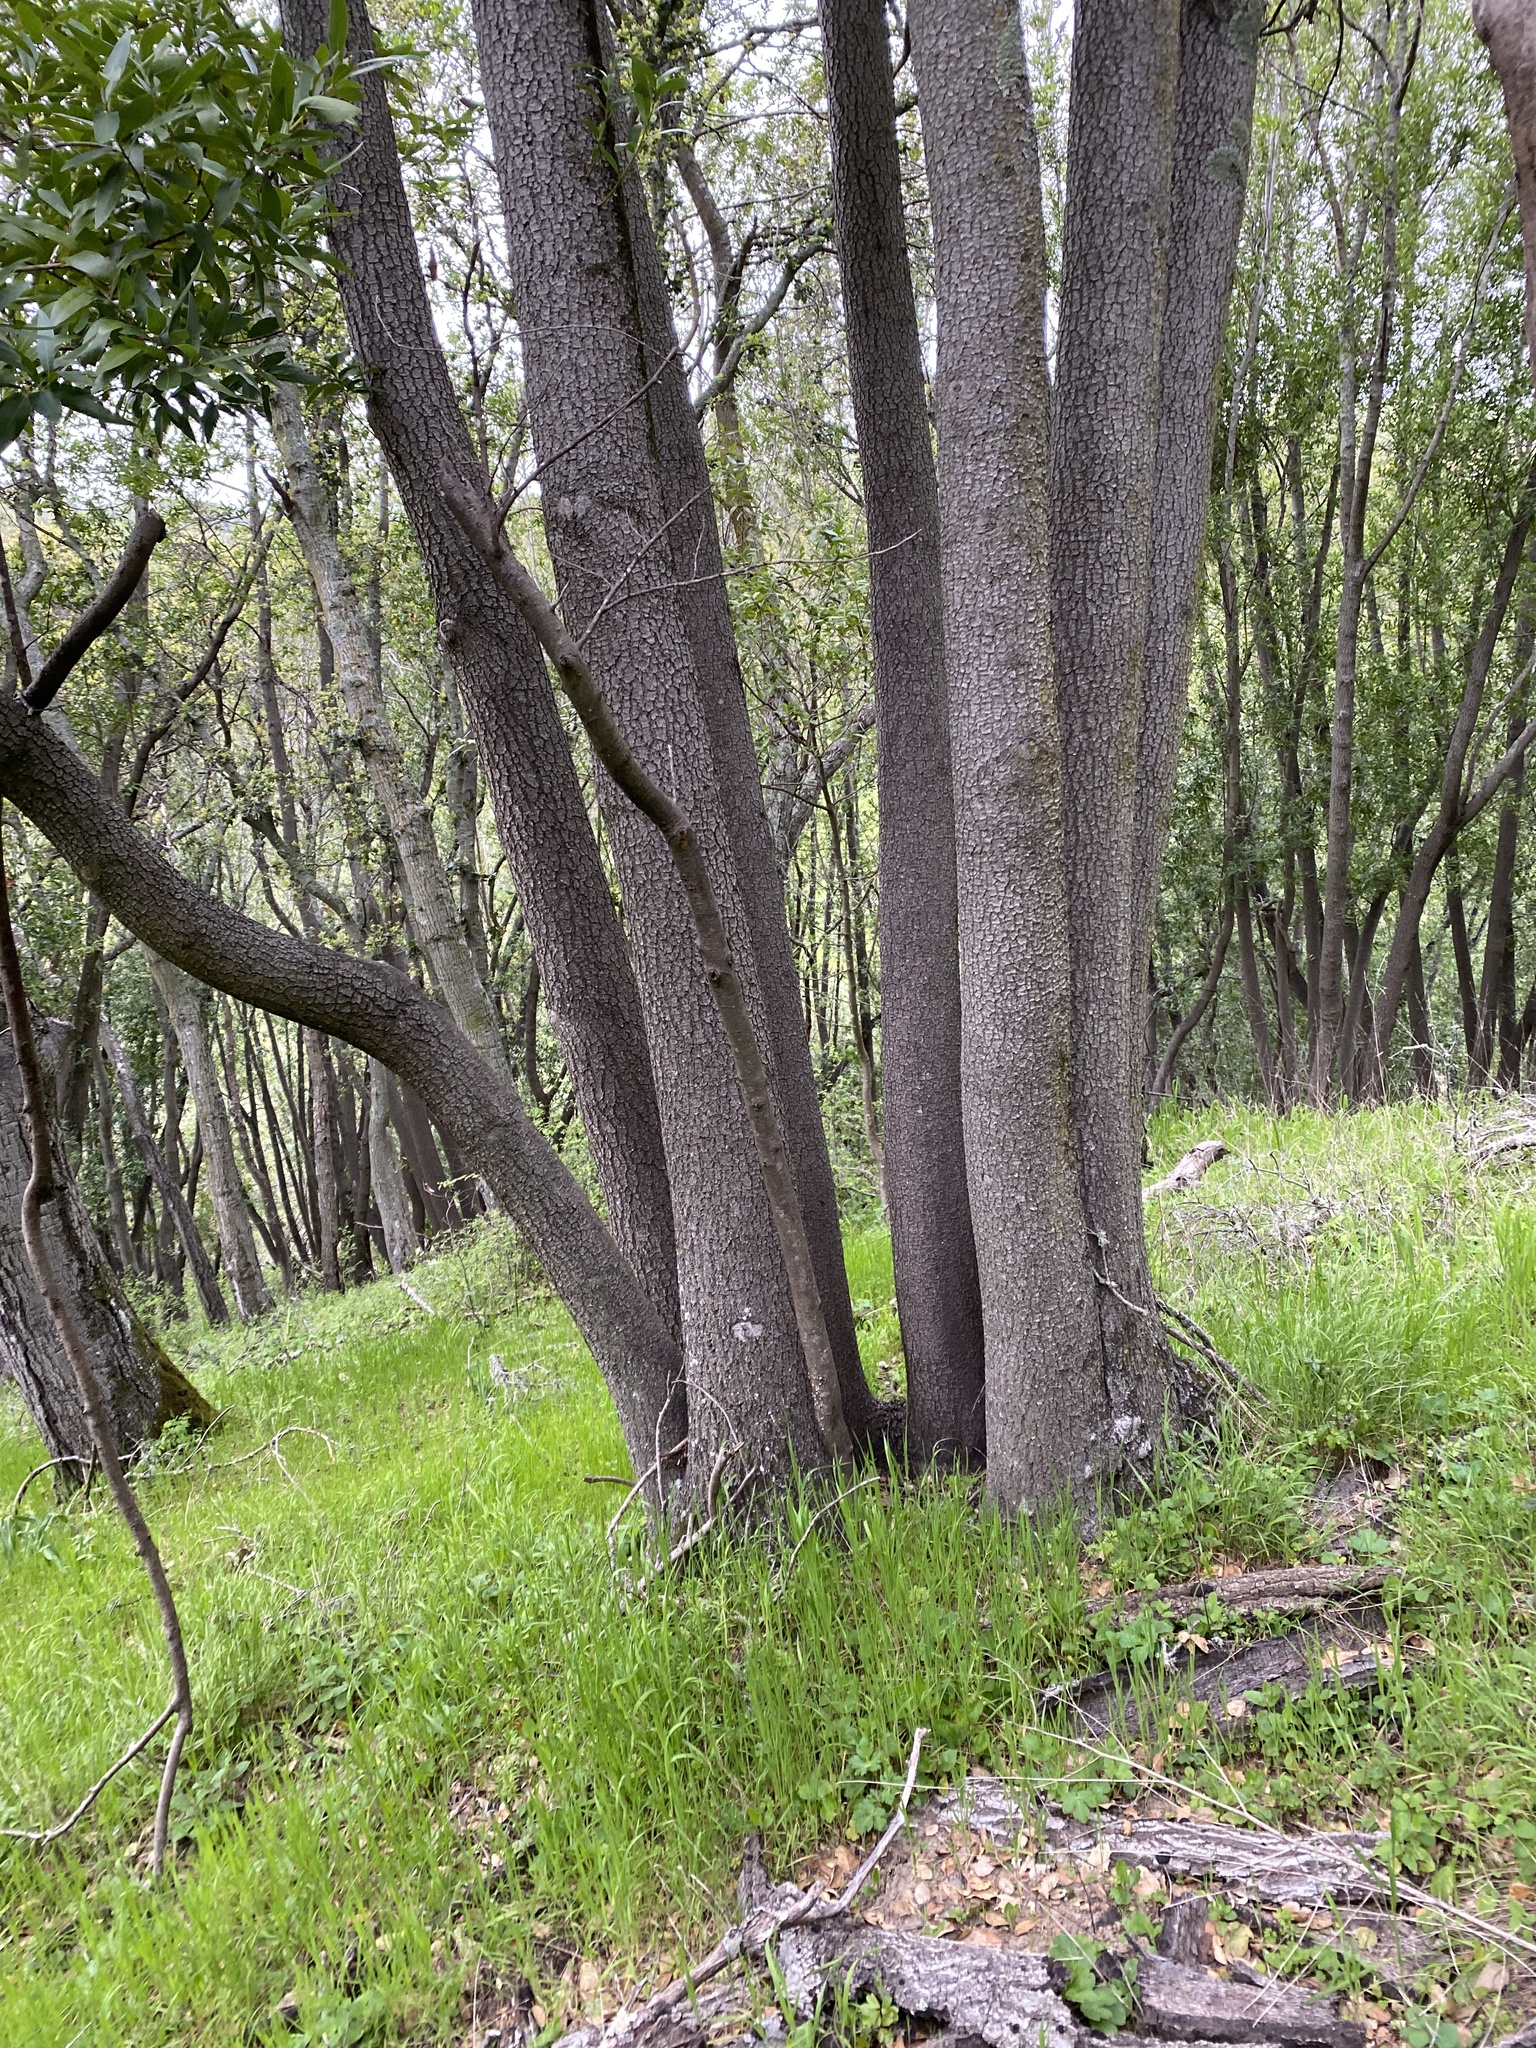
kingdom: Plantae
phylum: Tracheophyta
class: Magnoliopsida
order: Laurales
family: Lauraceae
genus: Umbellularia
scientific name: Umbellularia californica
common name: California bay
